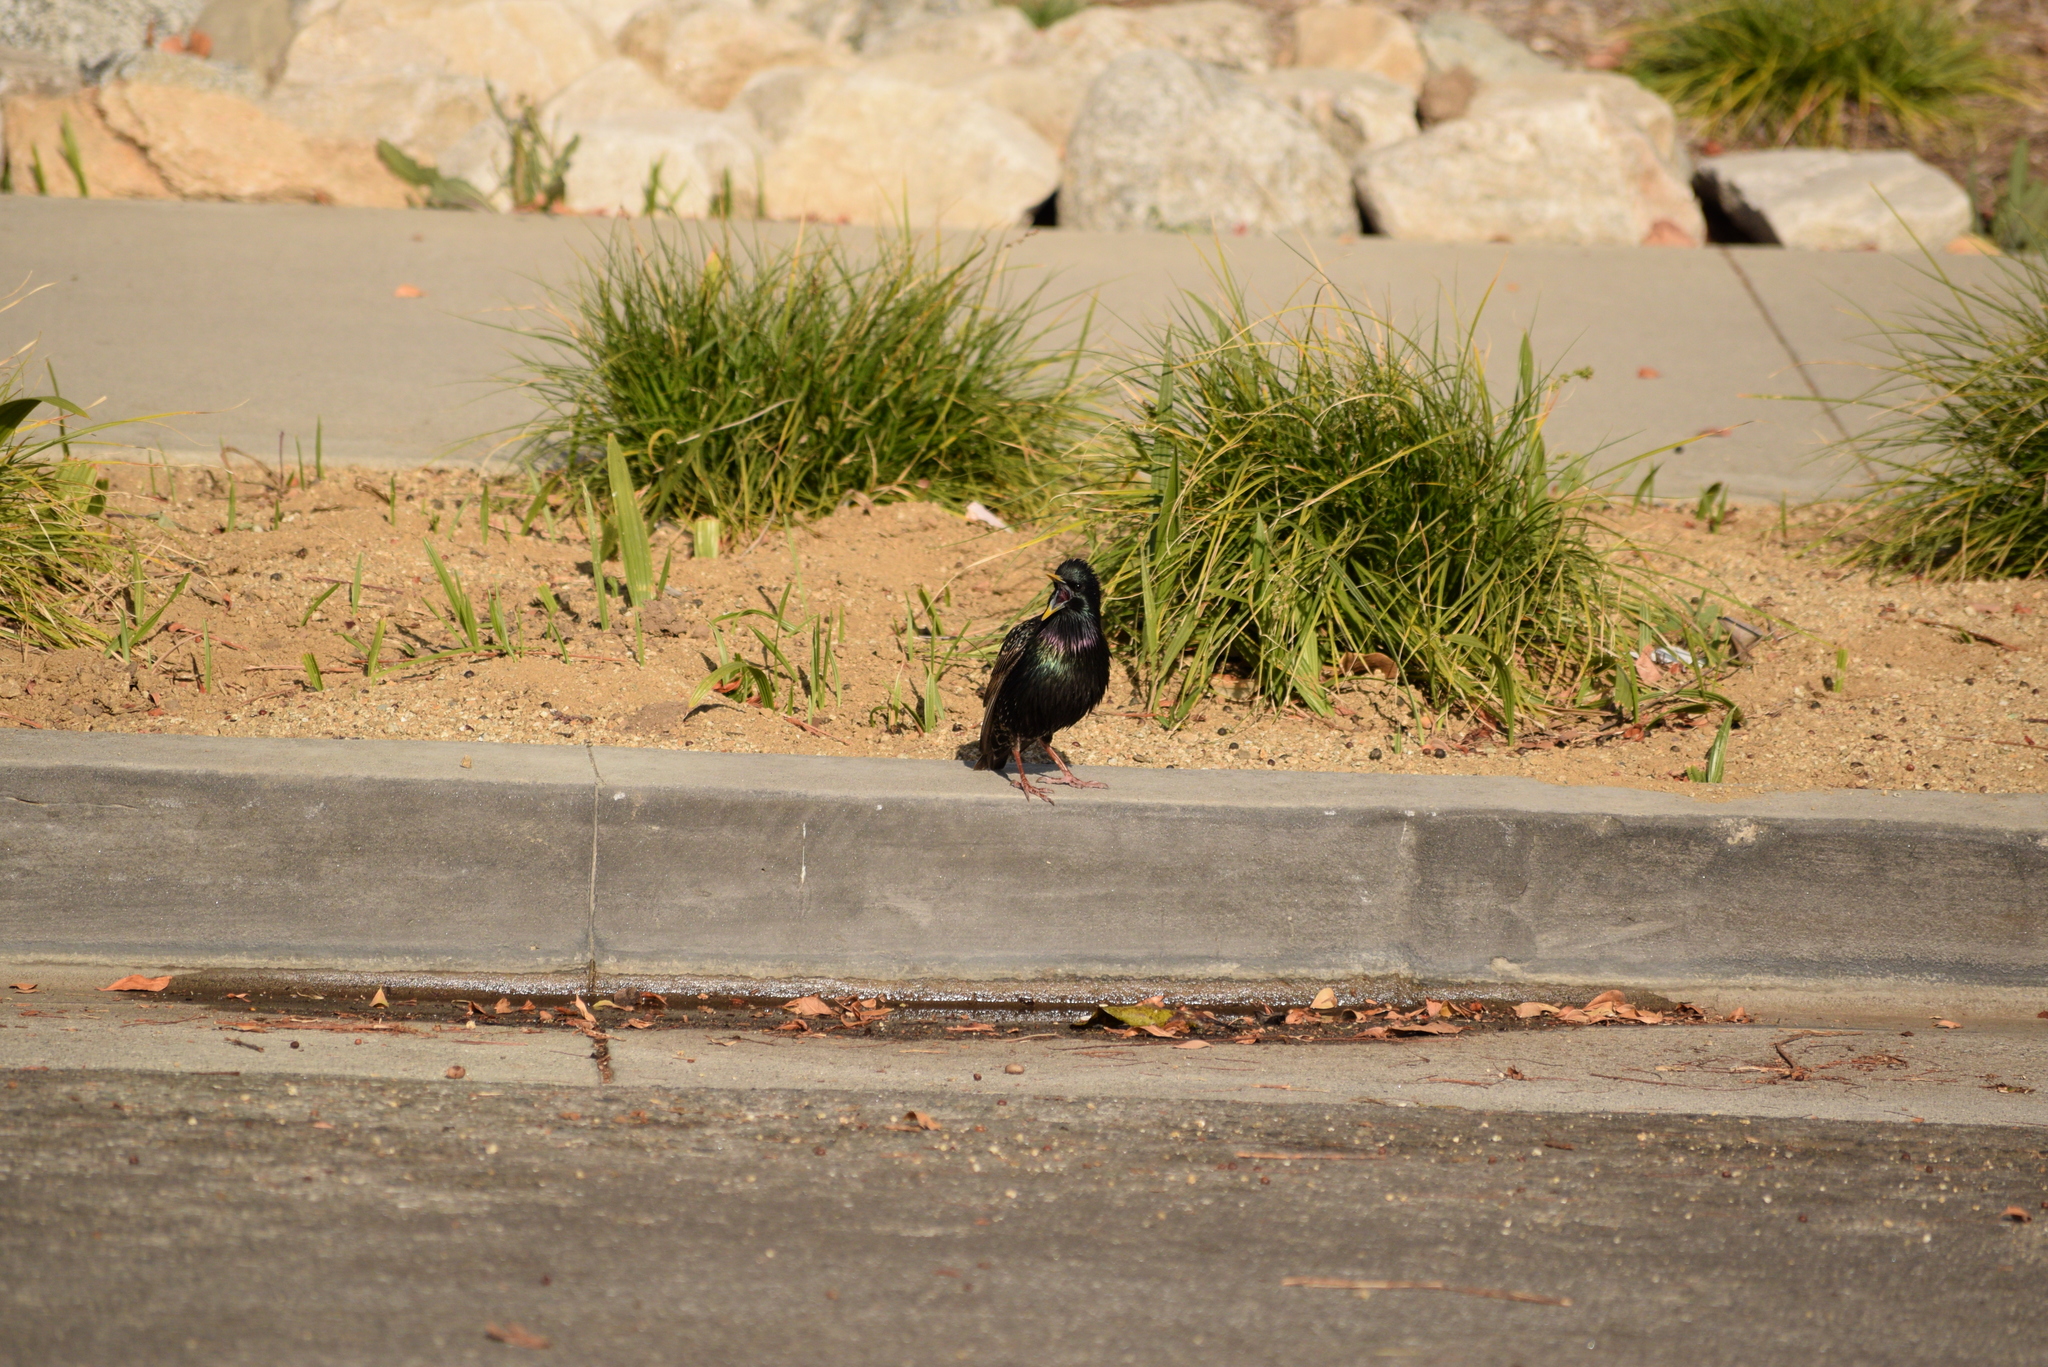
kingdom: Animalia
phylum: Chordata
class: Aves
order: Passeriformes
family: Sturnidae
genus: Sturnus
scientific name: Sturnus vulgaris
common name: Common starling
